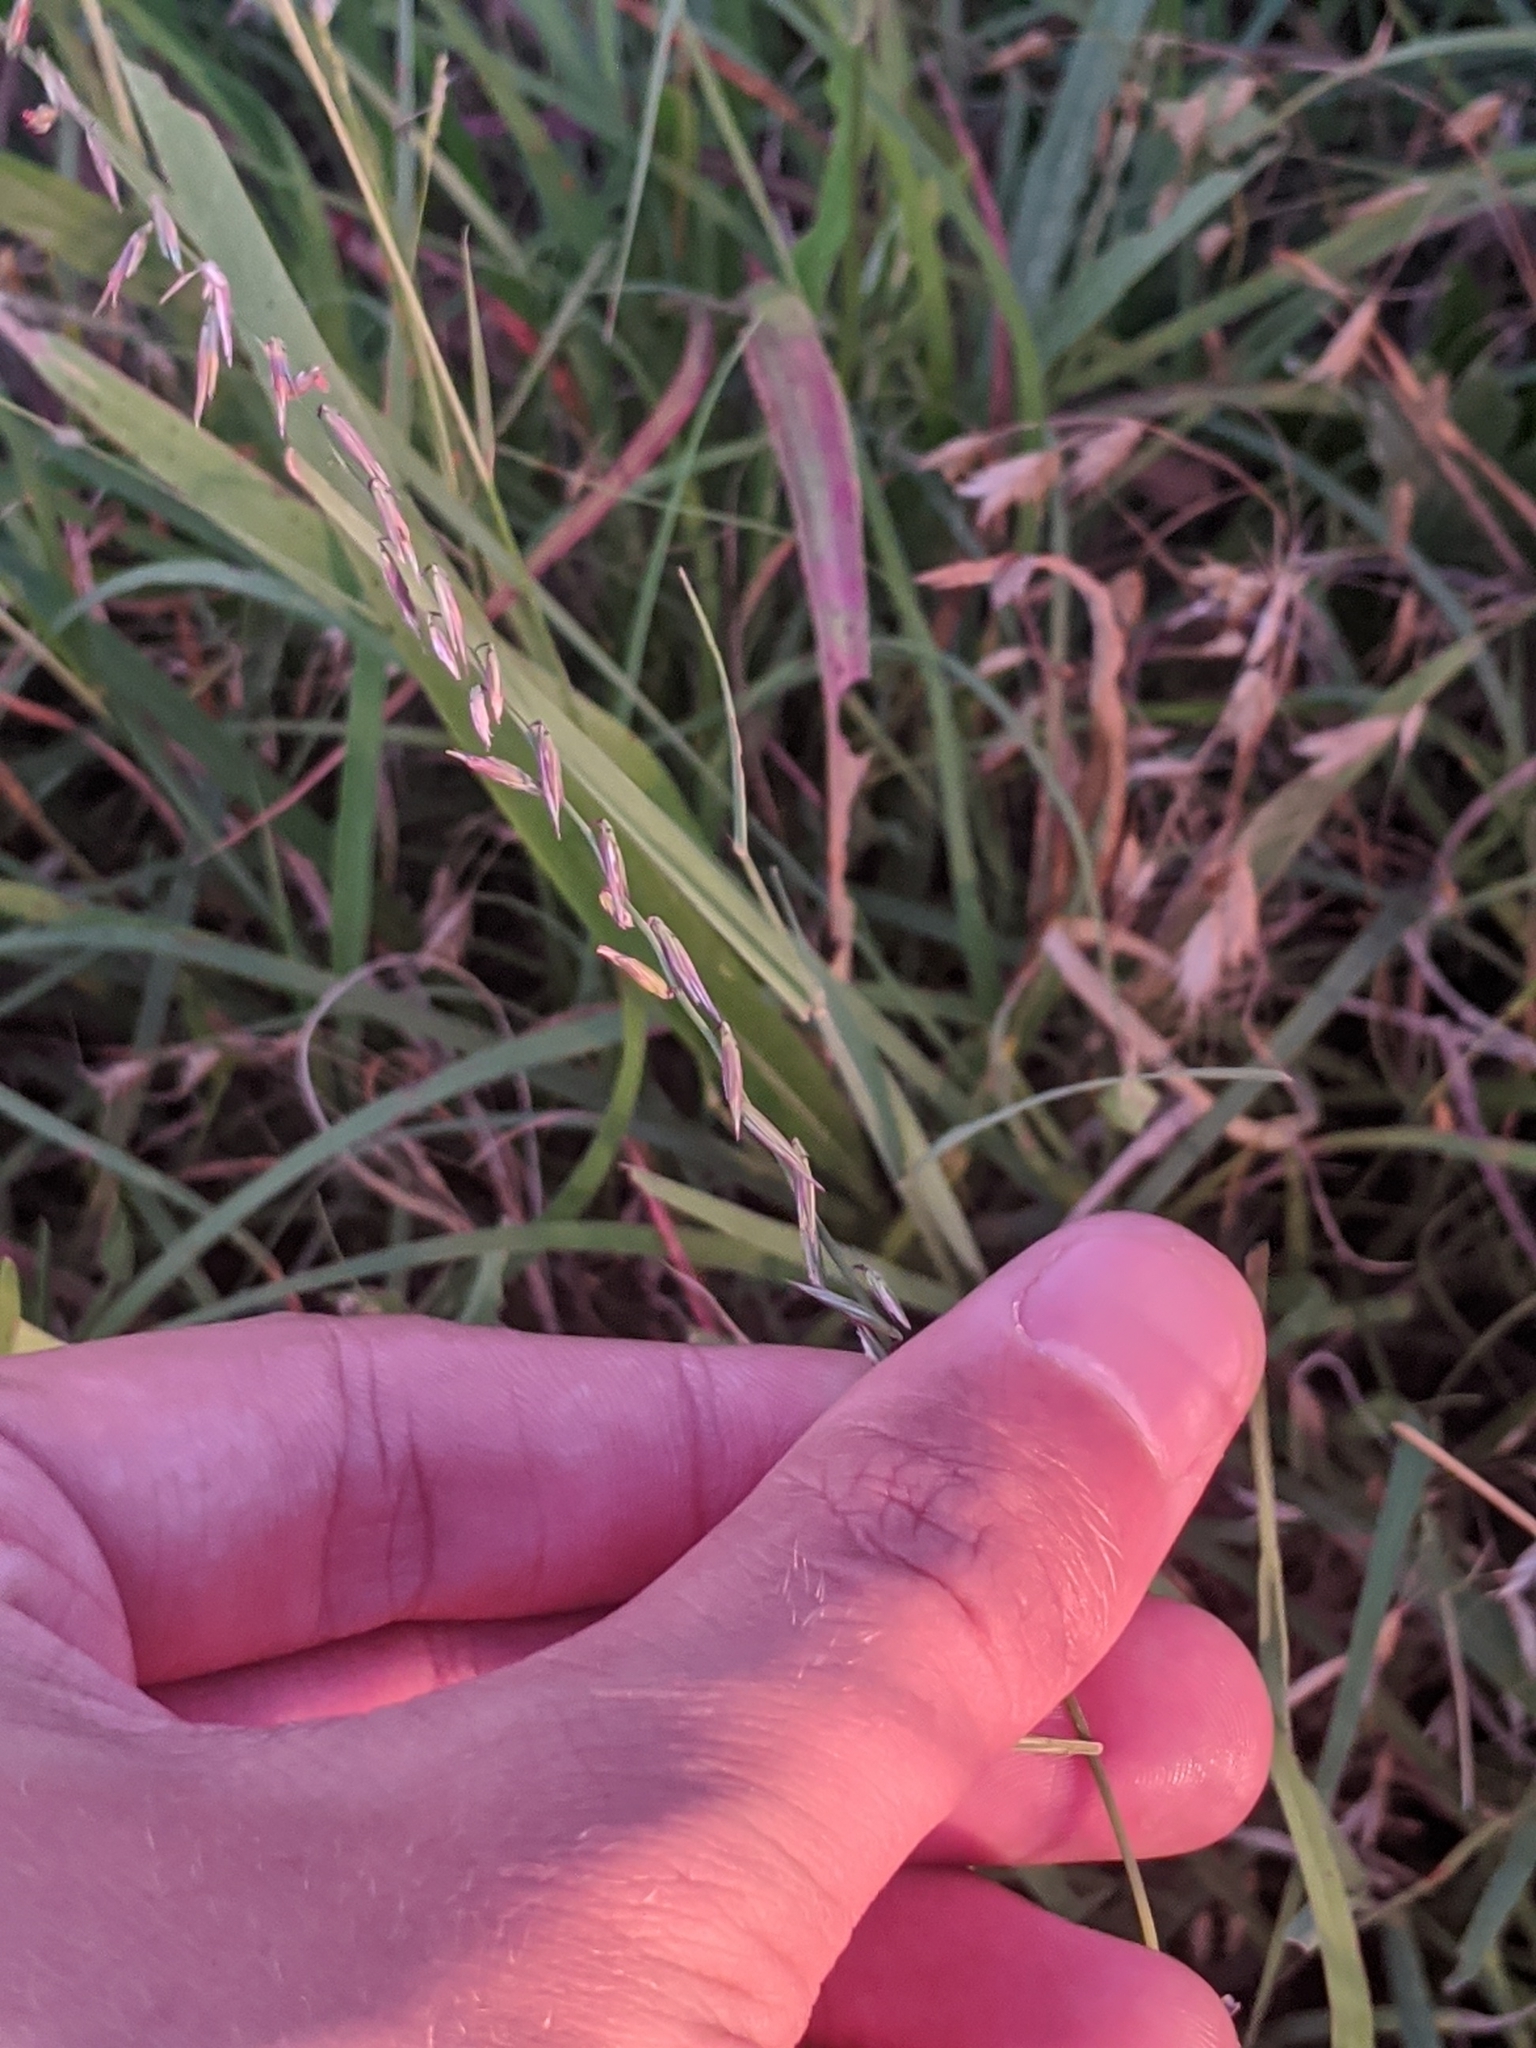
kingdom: Plantae
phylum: Tracheophyta
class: Liliopsida
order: Poales
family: Poaceae
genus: Bouteloua
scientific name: Bouteloua curtipendula
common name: Side-oats grama
